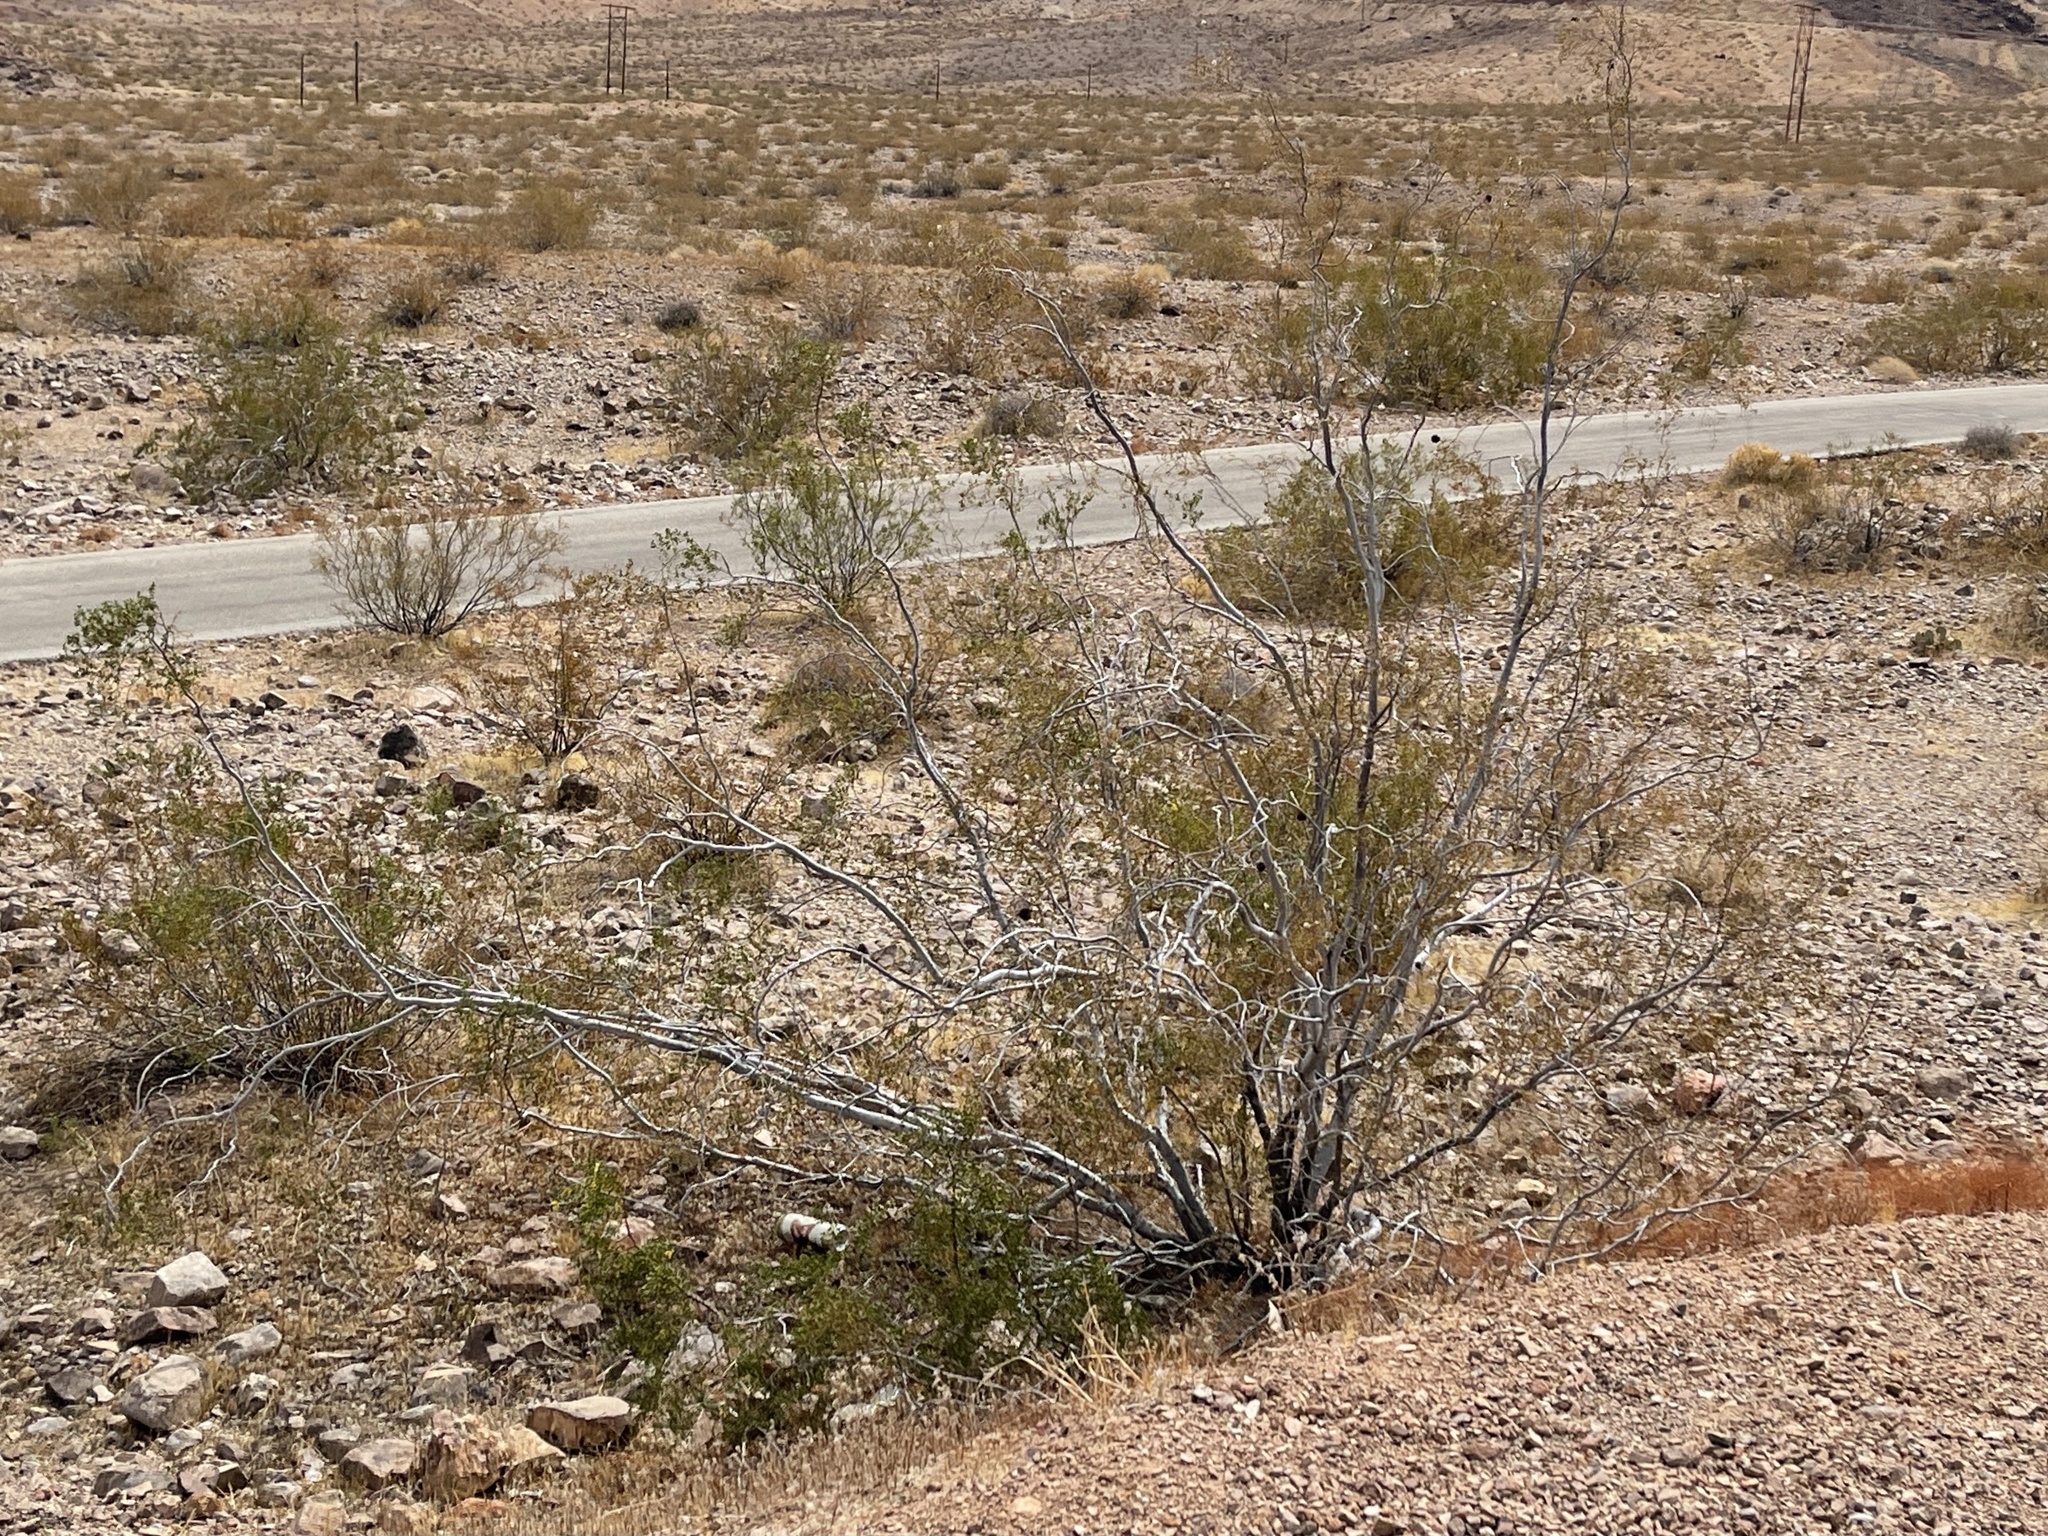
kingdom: Plantae
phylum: Tracheophyta
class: Magnoliopsida
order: Zygophyllales
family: Zygophyllaceae
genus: Larrea
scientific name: Larrea tridentata
